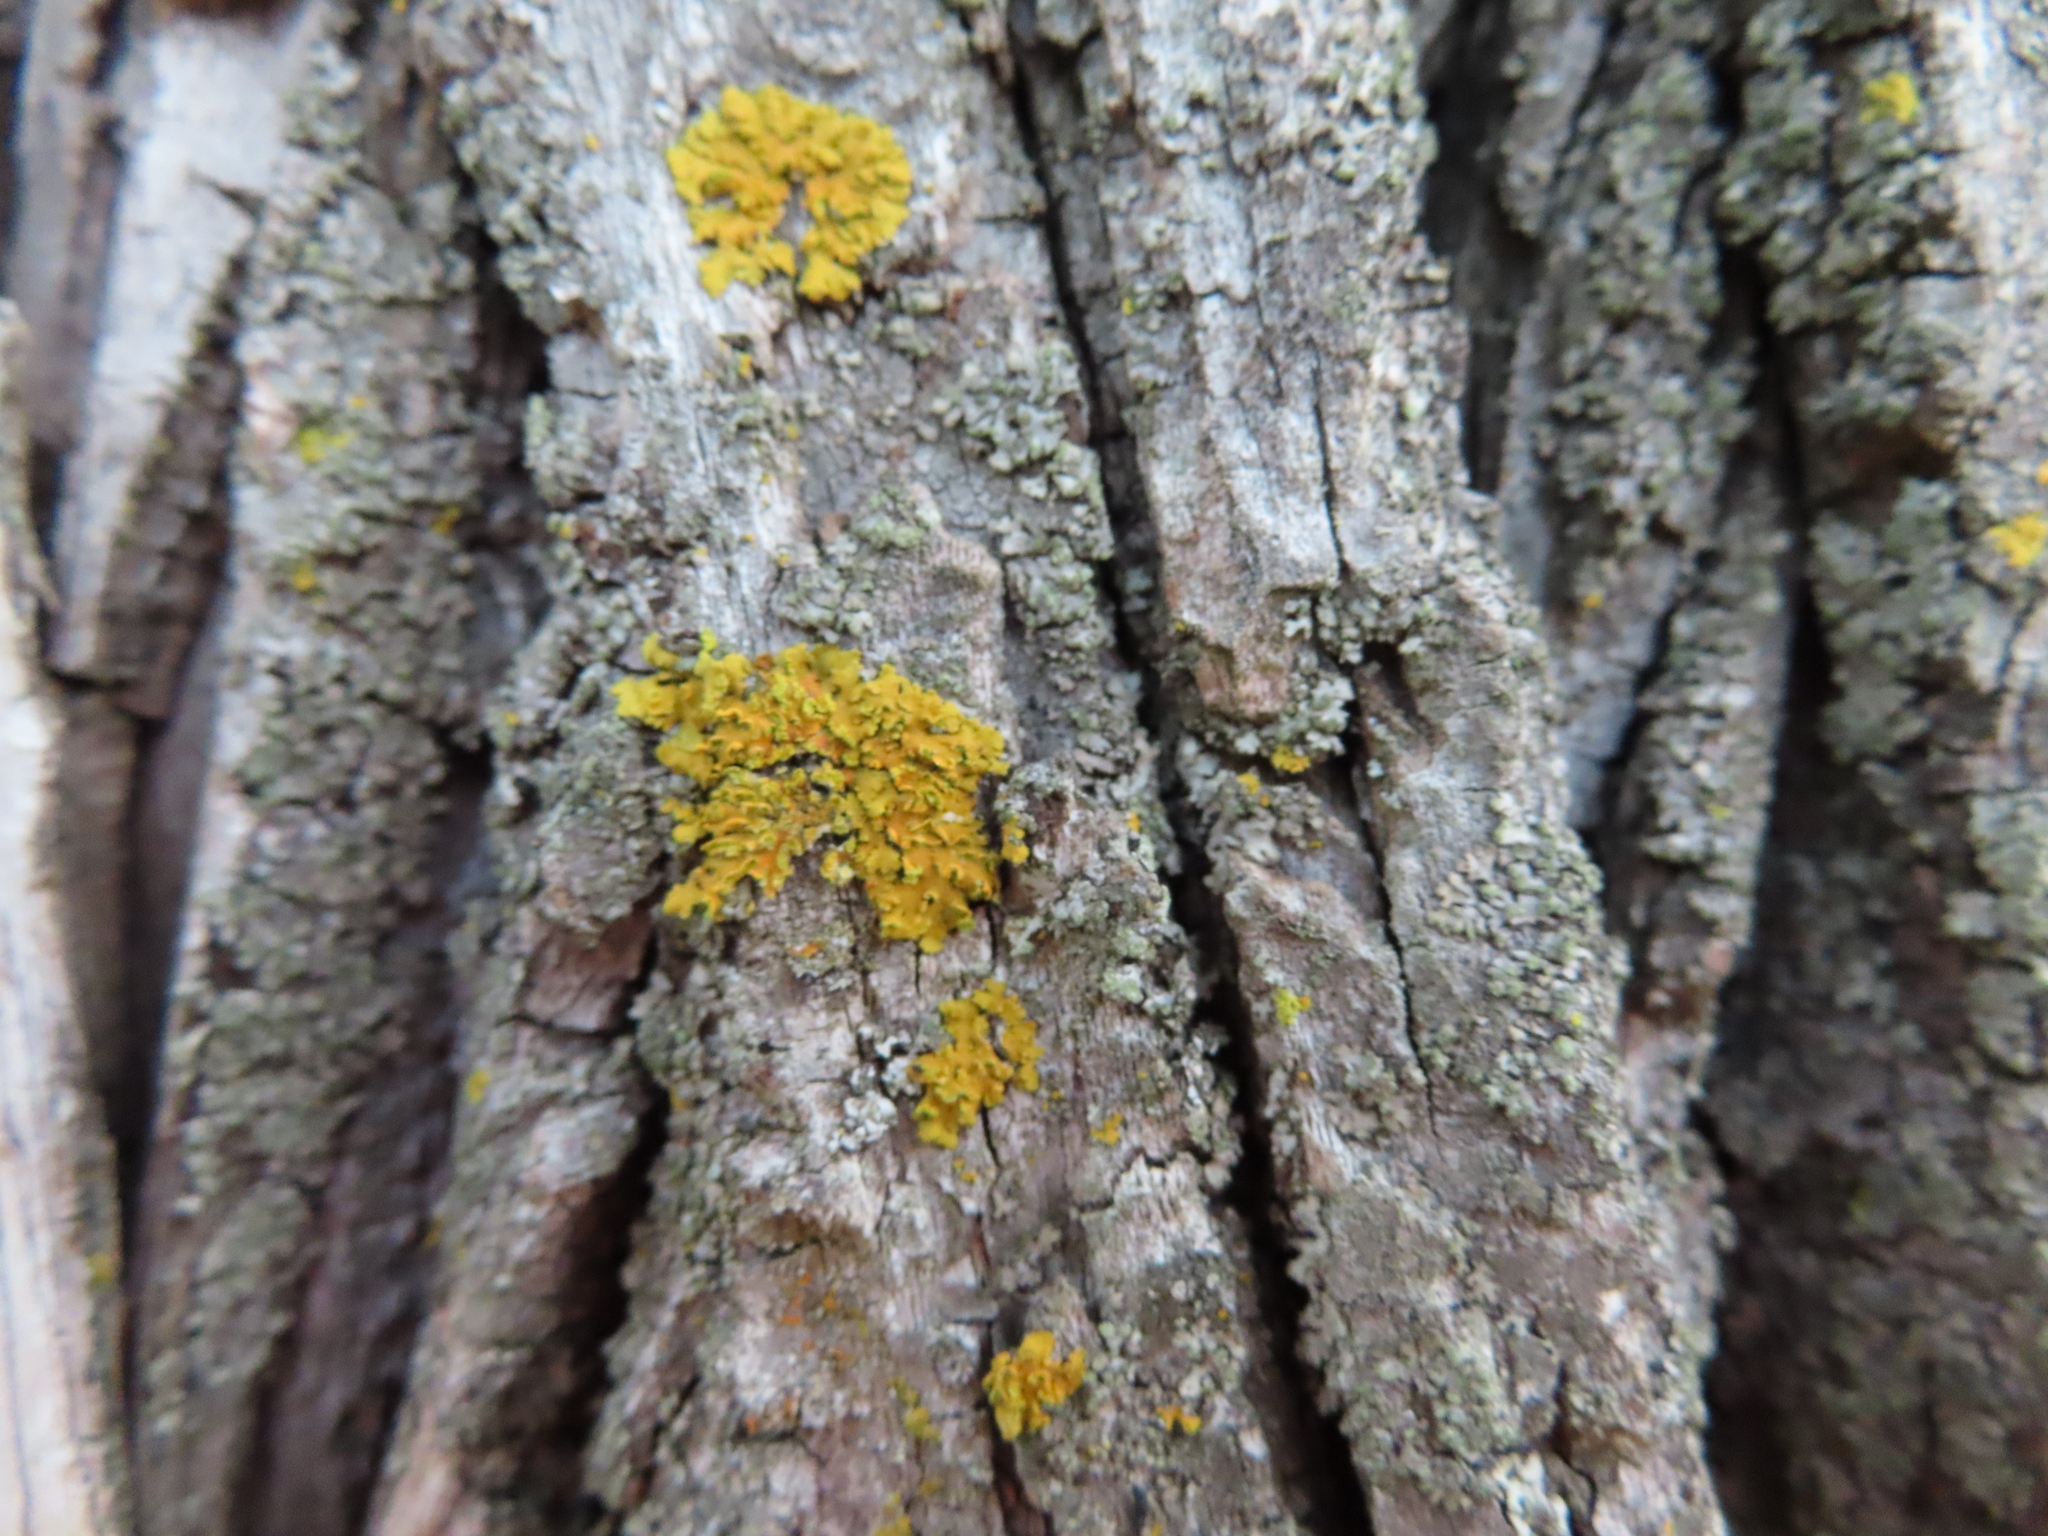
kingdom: Fungi
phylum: Ascomycota
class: Lecanoromycetes
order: Teloschistales
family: Teloschistaceae
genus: Oxneria
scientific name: Oxneria fallax
